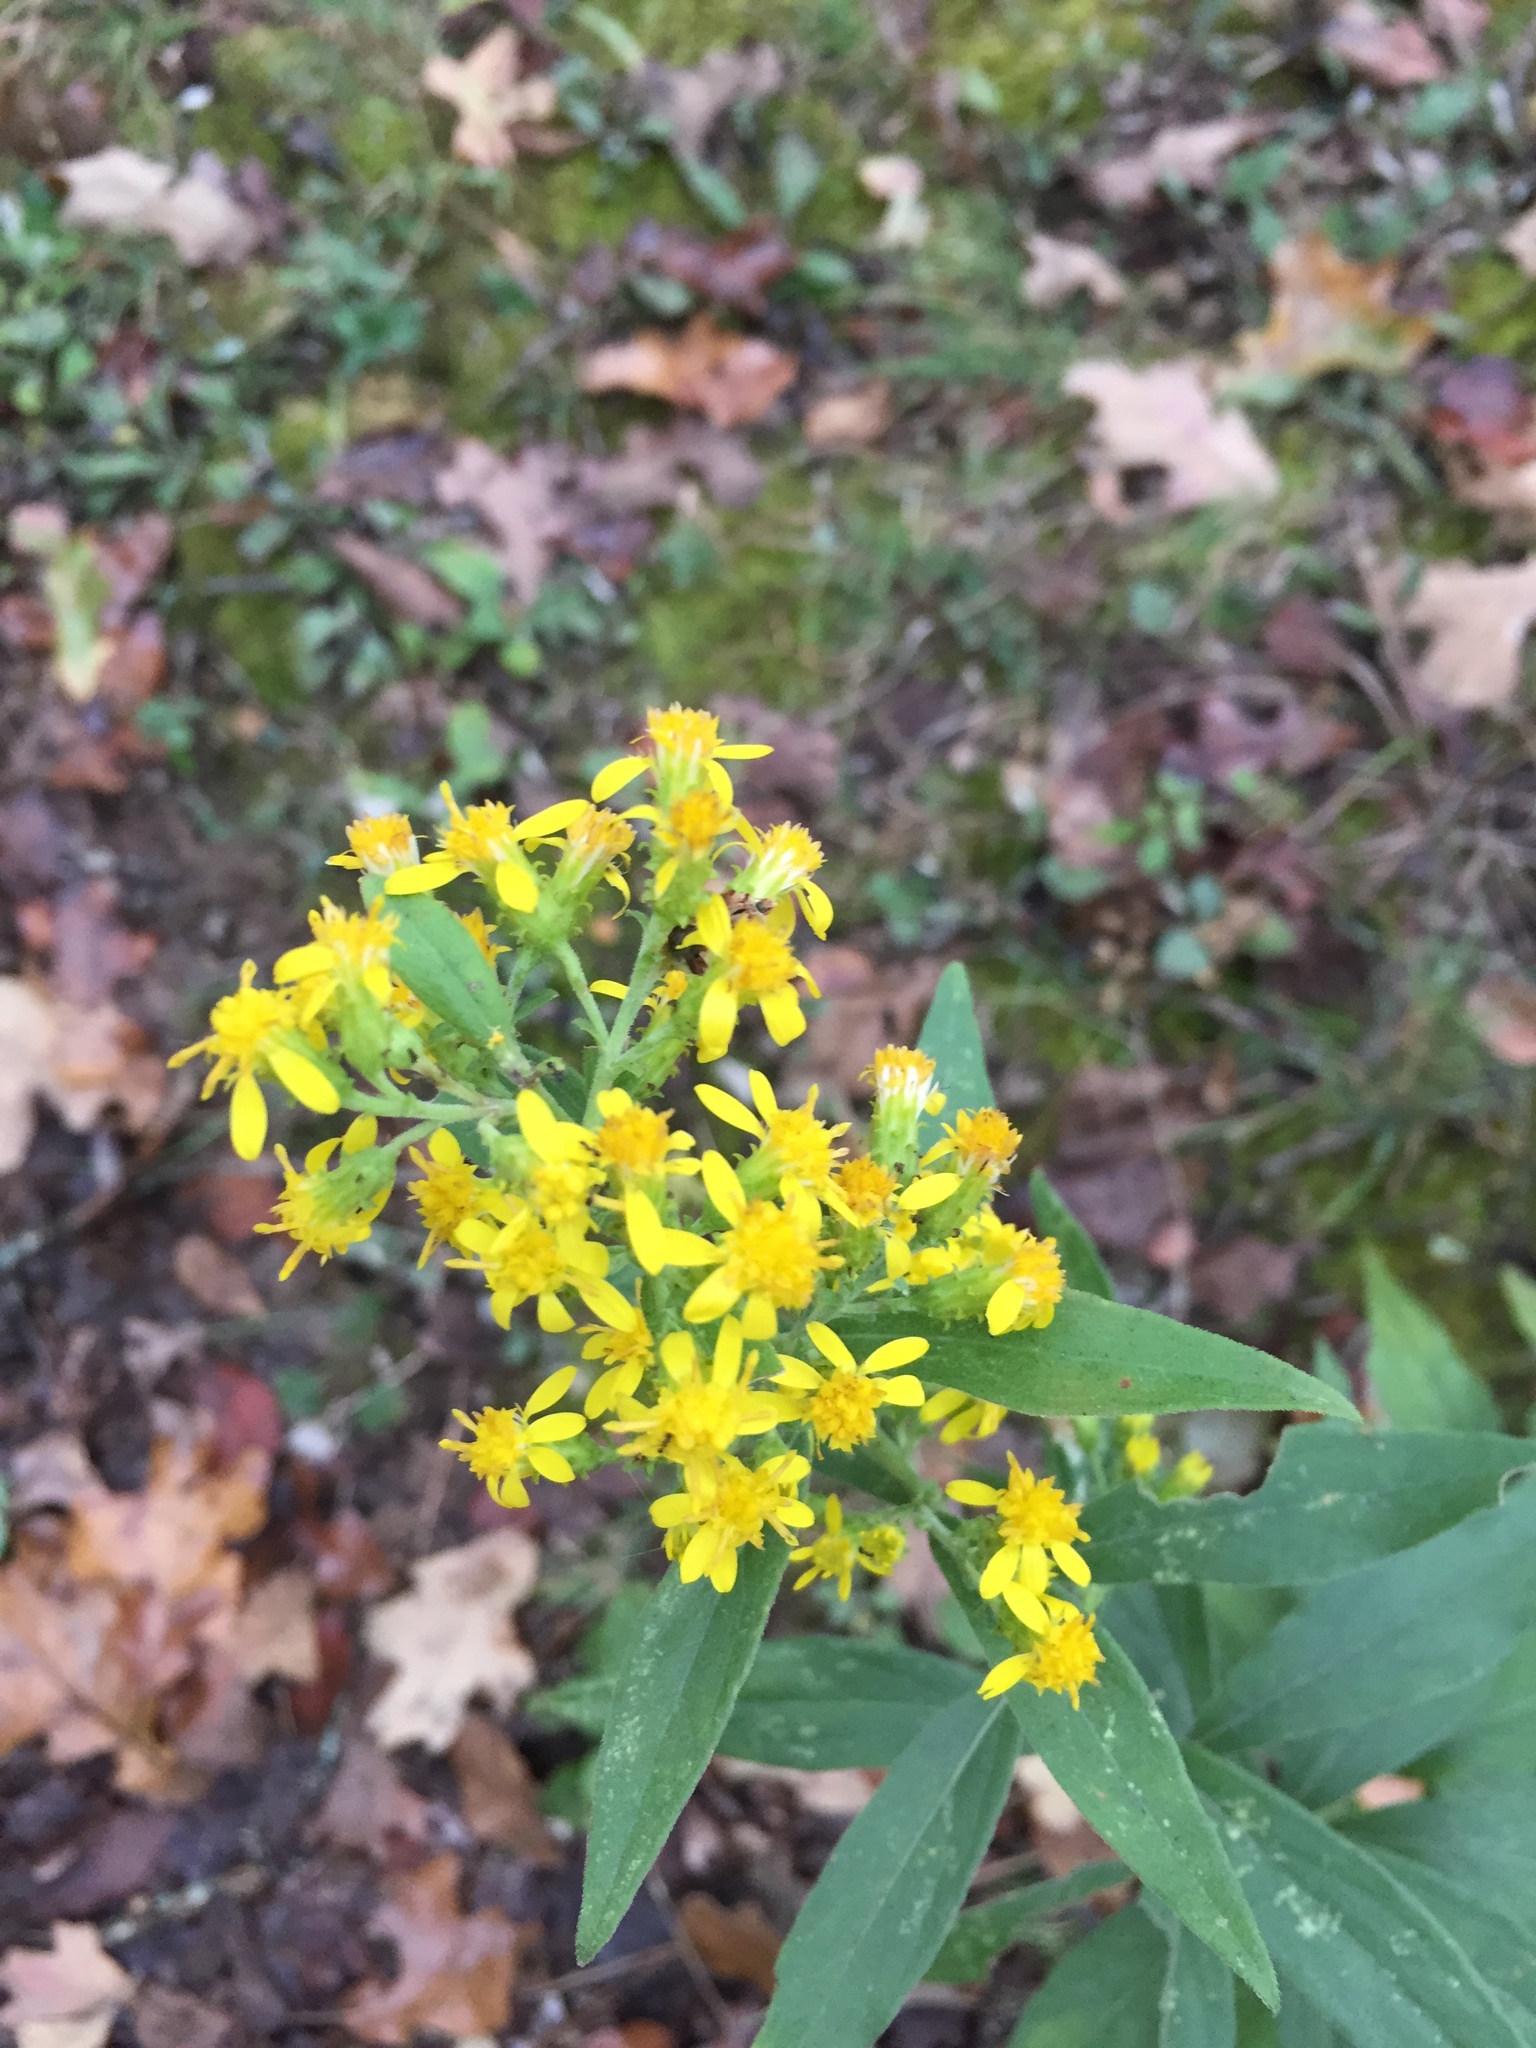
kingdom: Plantae
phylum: Tracheophyta
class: Magnoliopsida
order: Asterales
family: Asteraceae
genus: Solidago
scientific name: Solidago buckleyi
